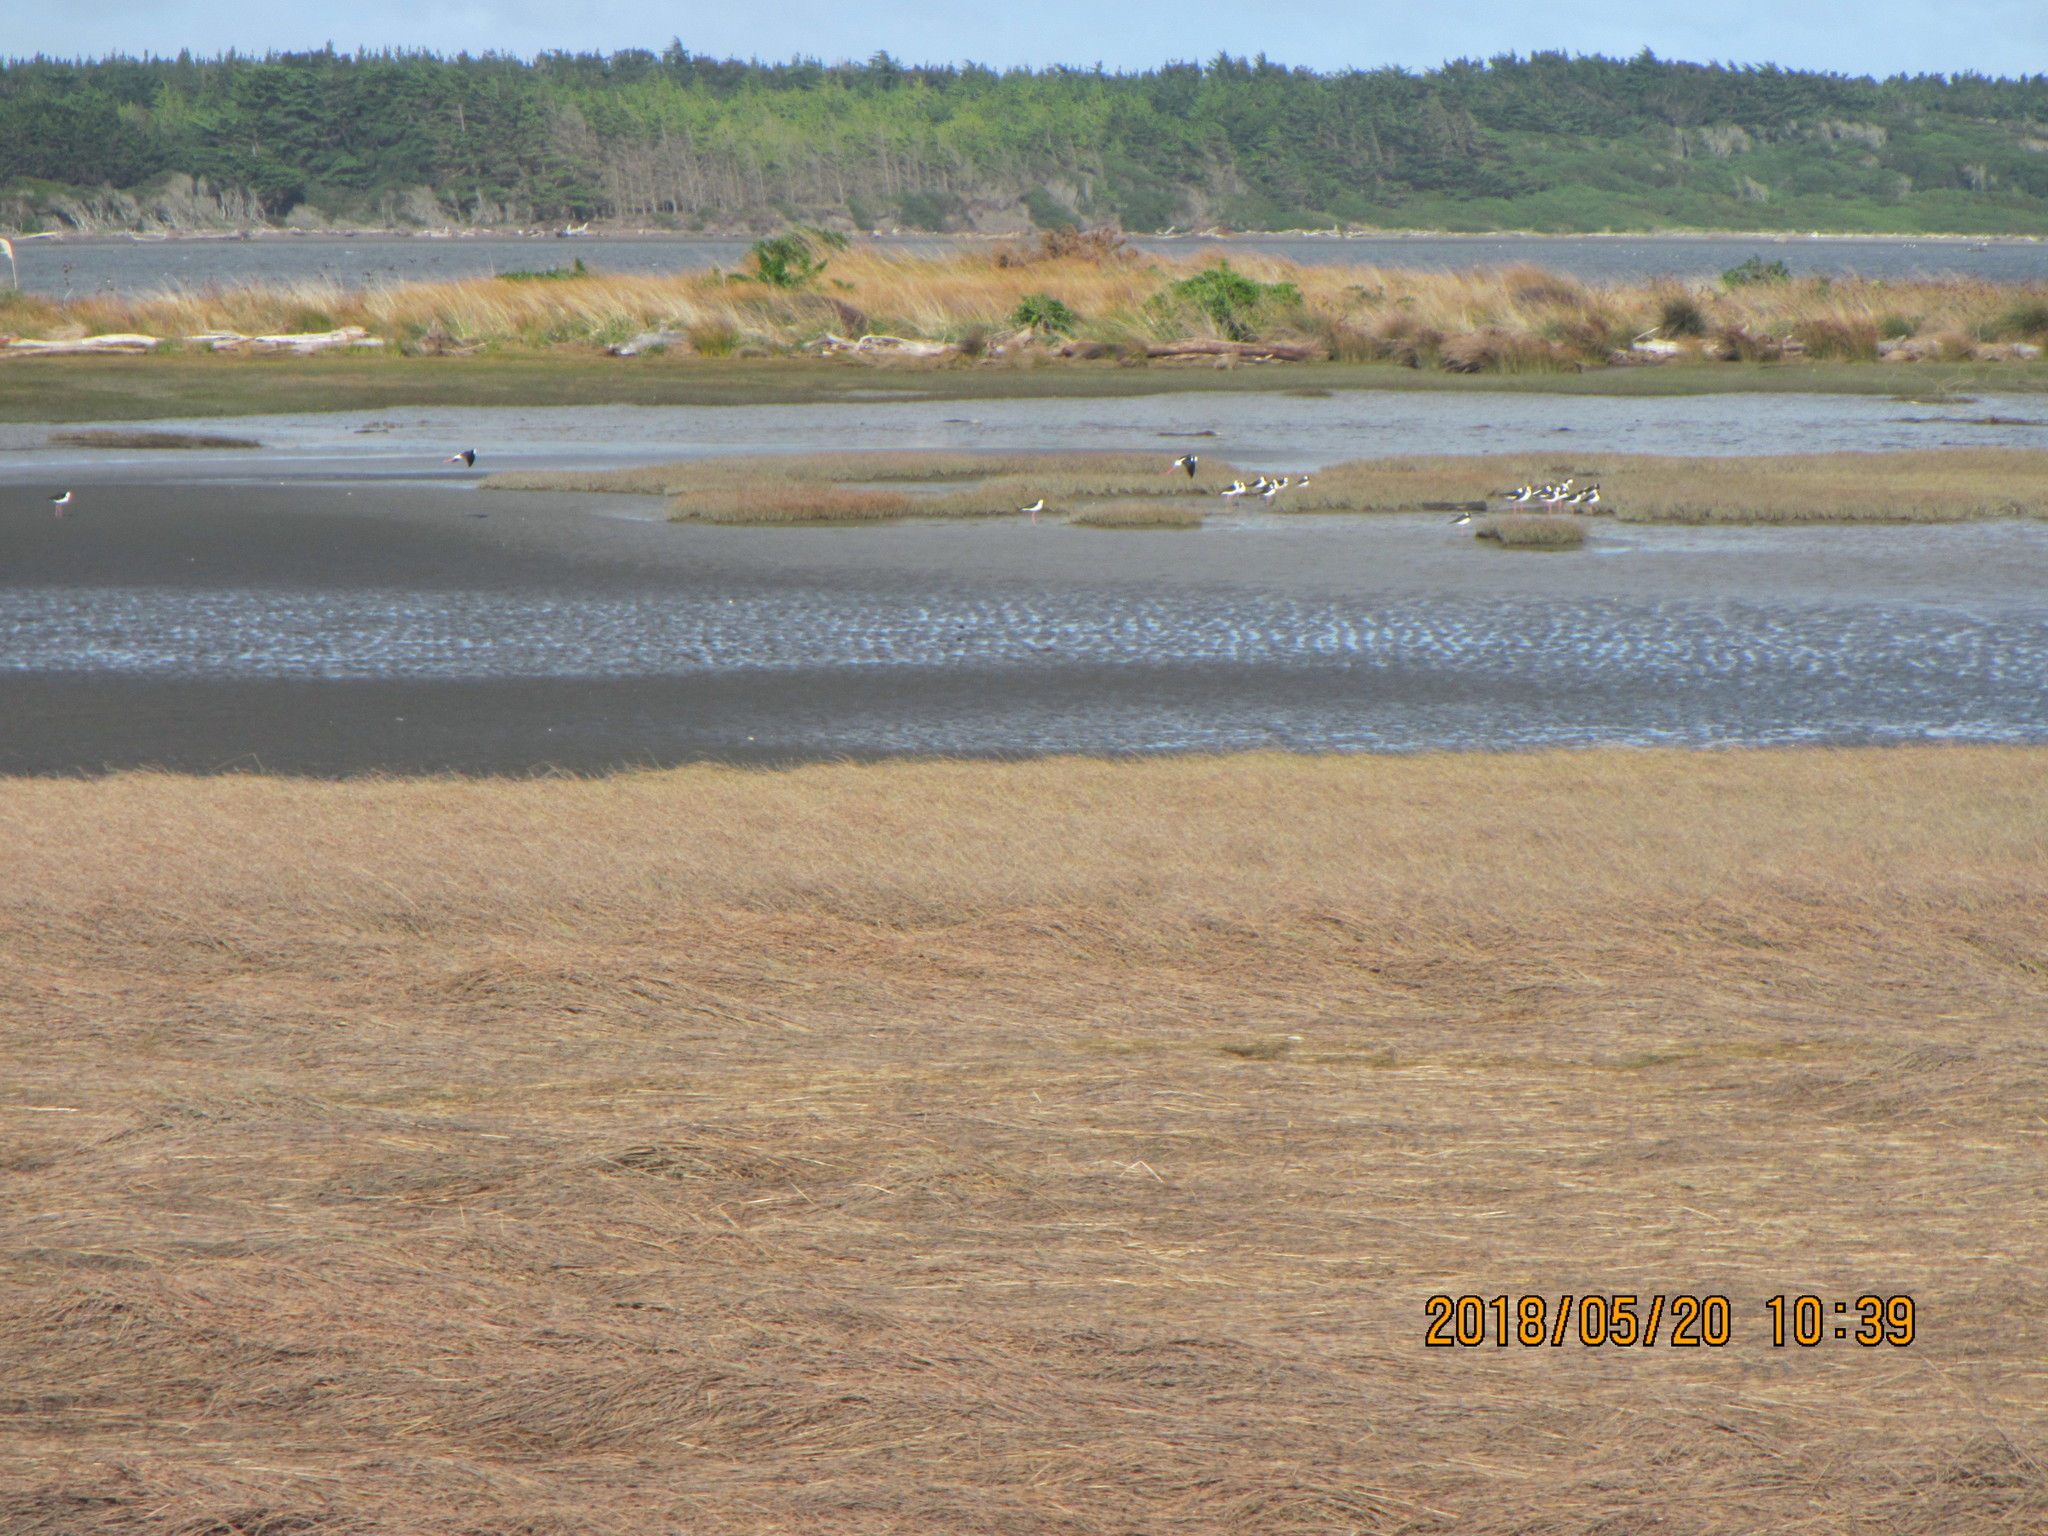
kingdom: Animalia
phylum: Chordata
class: Aves
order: Charadriiformes
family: Recurvirostridae
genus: Himantopus
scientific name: Himantopus leucocephalus
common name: White-headed stilt
